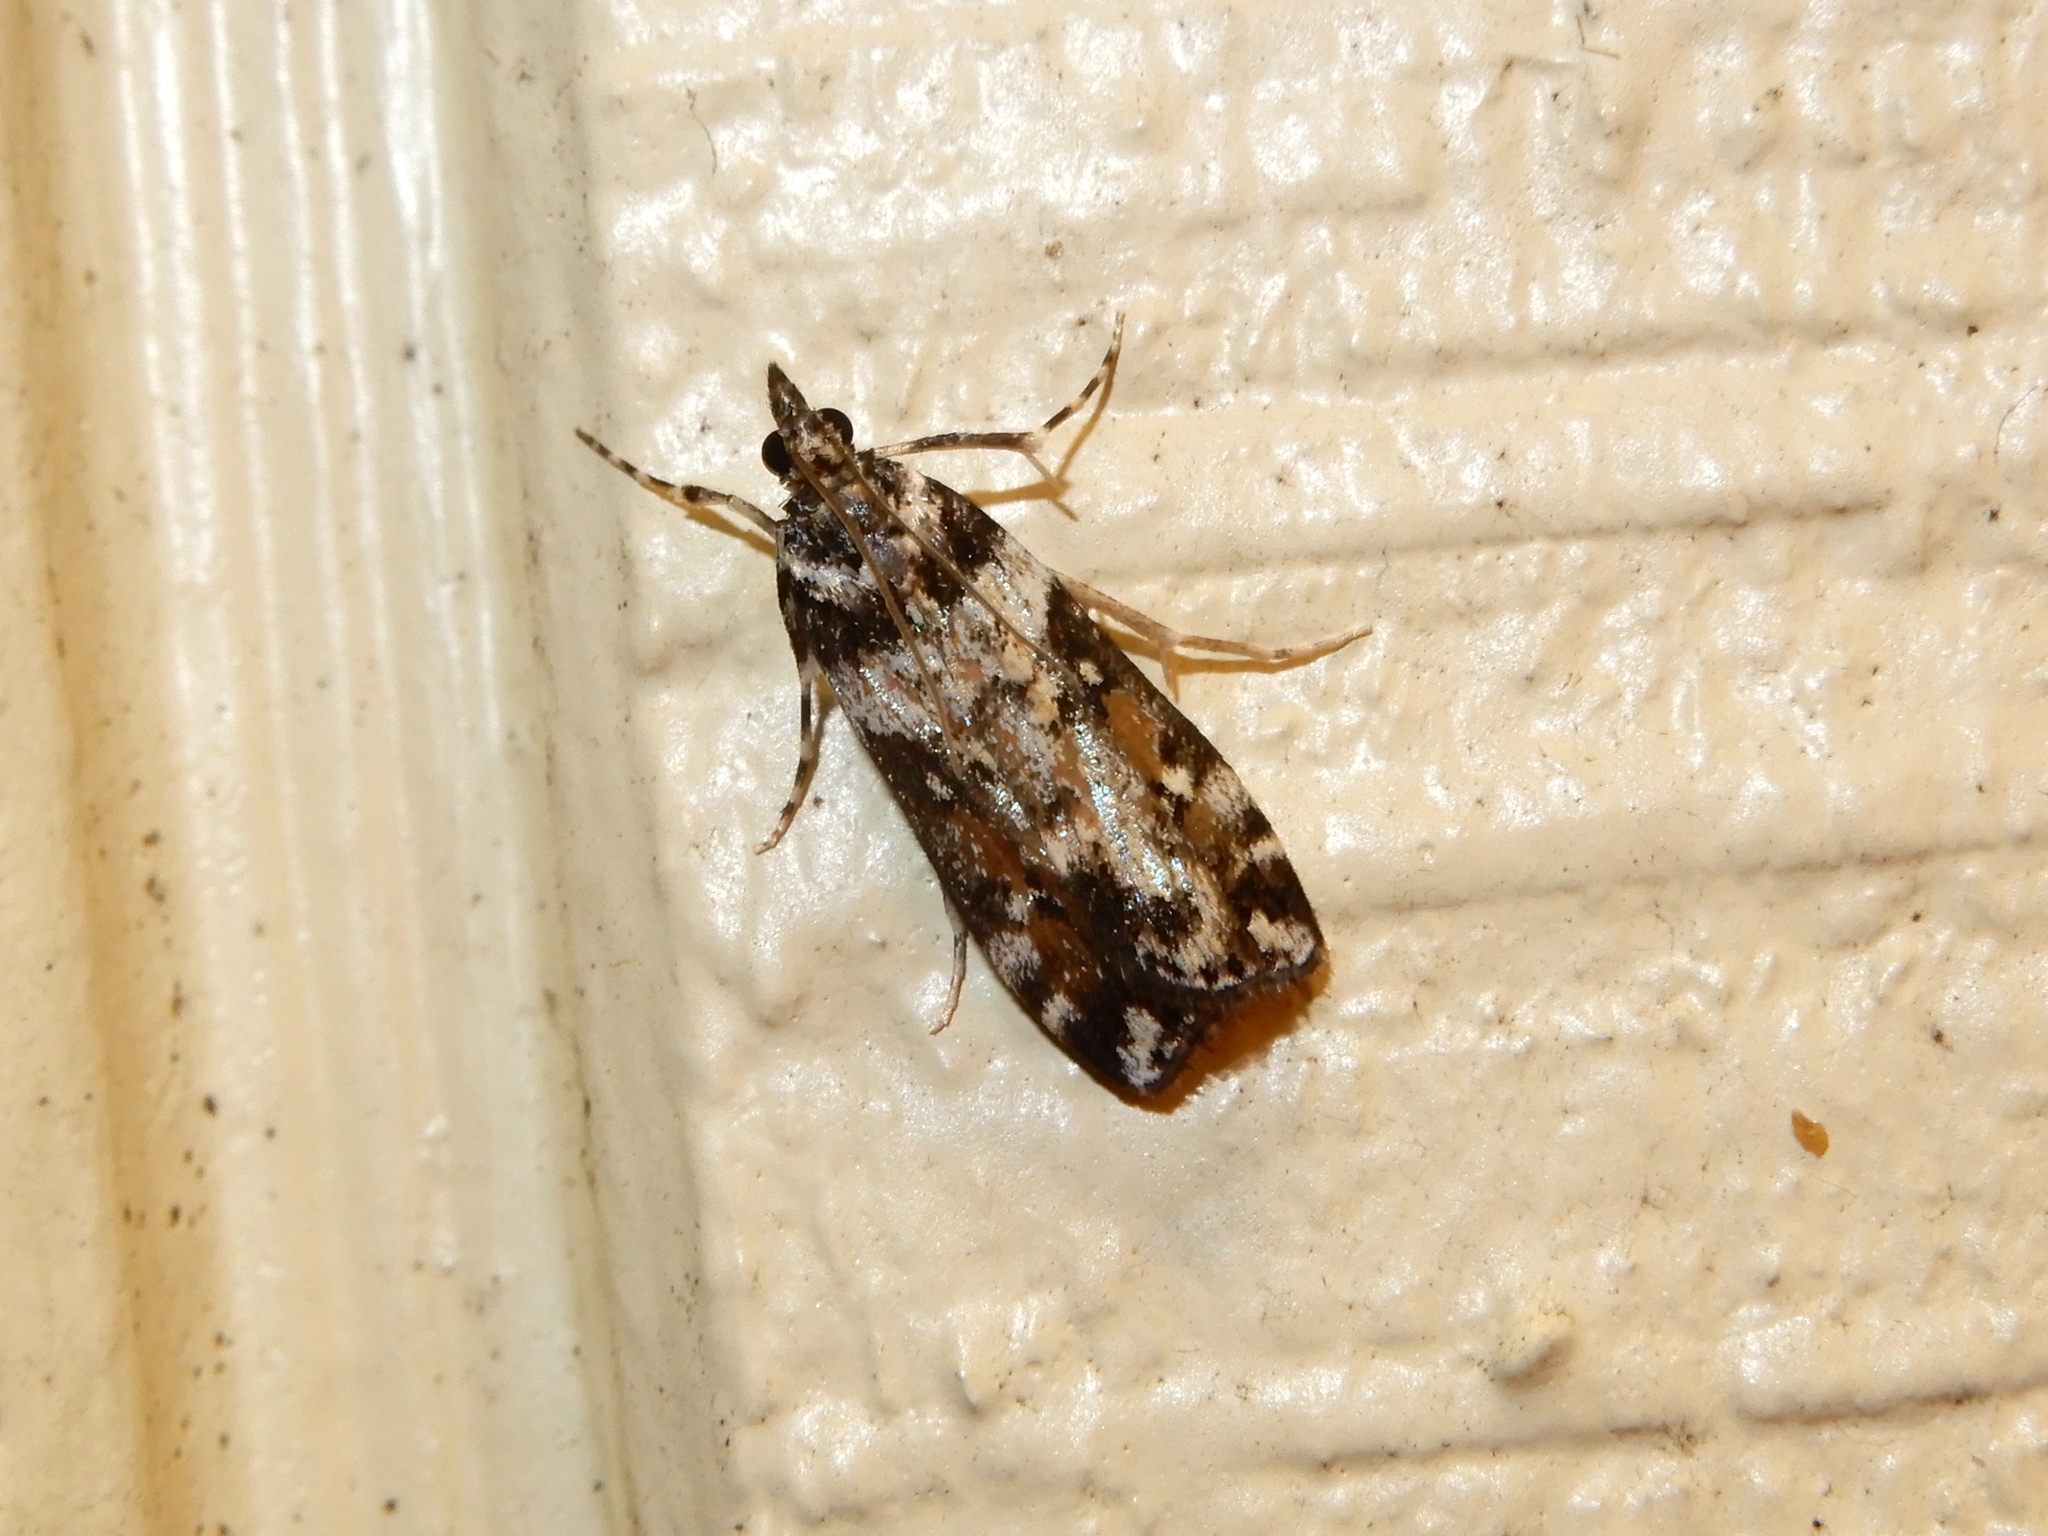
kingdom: Animalia
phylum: Arthropoda
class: Insecta
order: Lepidoptera
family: Crambidae
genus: Eudonia
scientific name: Eudonia diphtheralis
